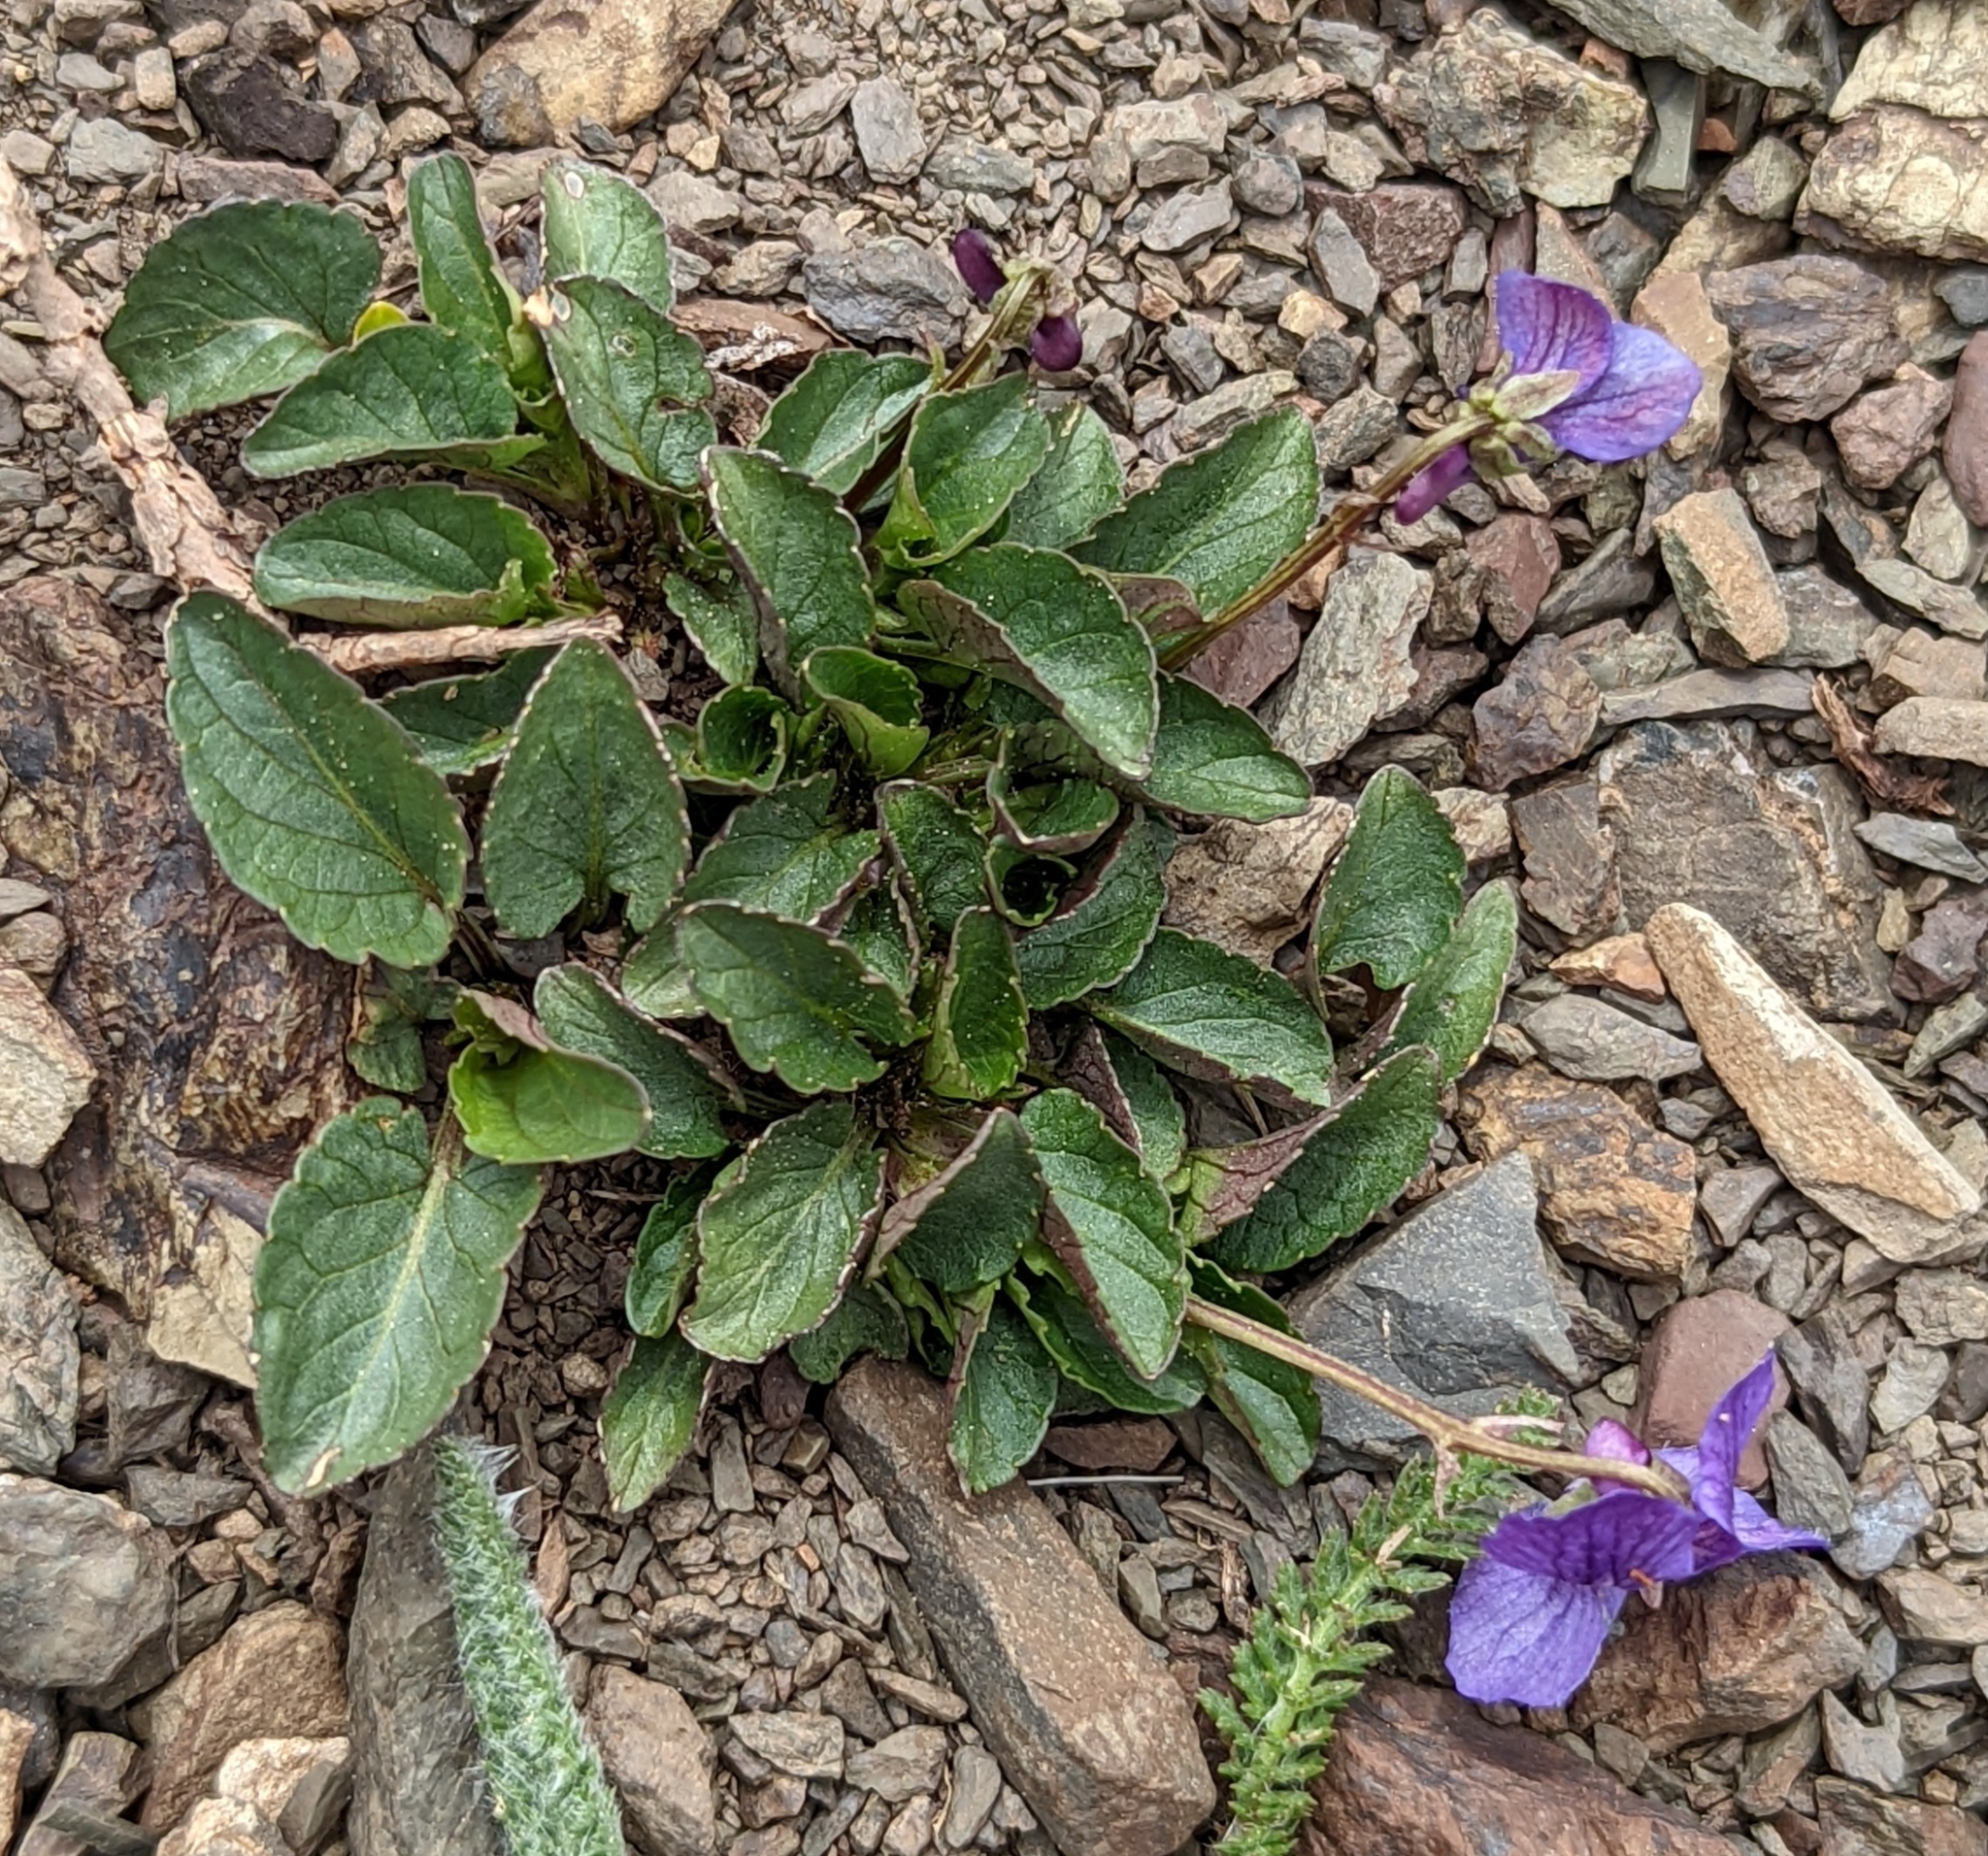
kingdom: Plantae
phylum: Tracheophyta
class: Magnoliopsida
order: Malpighiales
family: Violaceae
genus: Viola
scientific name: Viola adunca
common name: Sand violet
